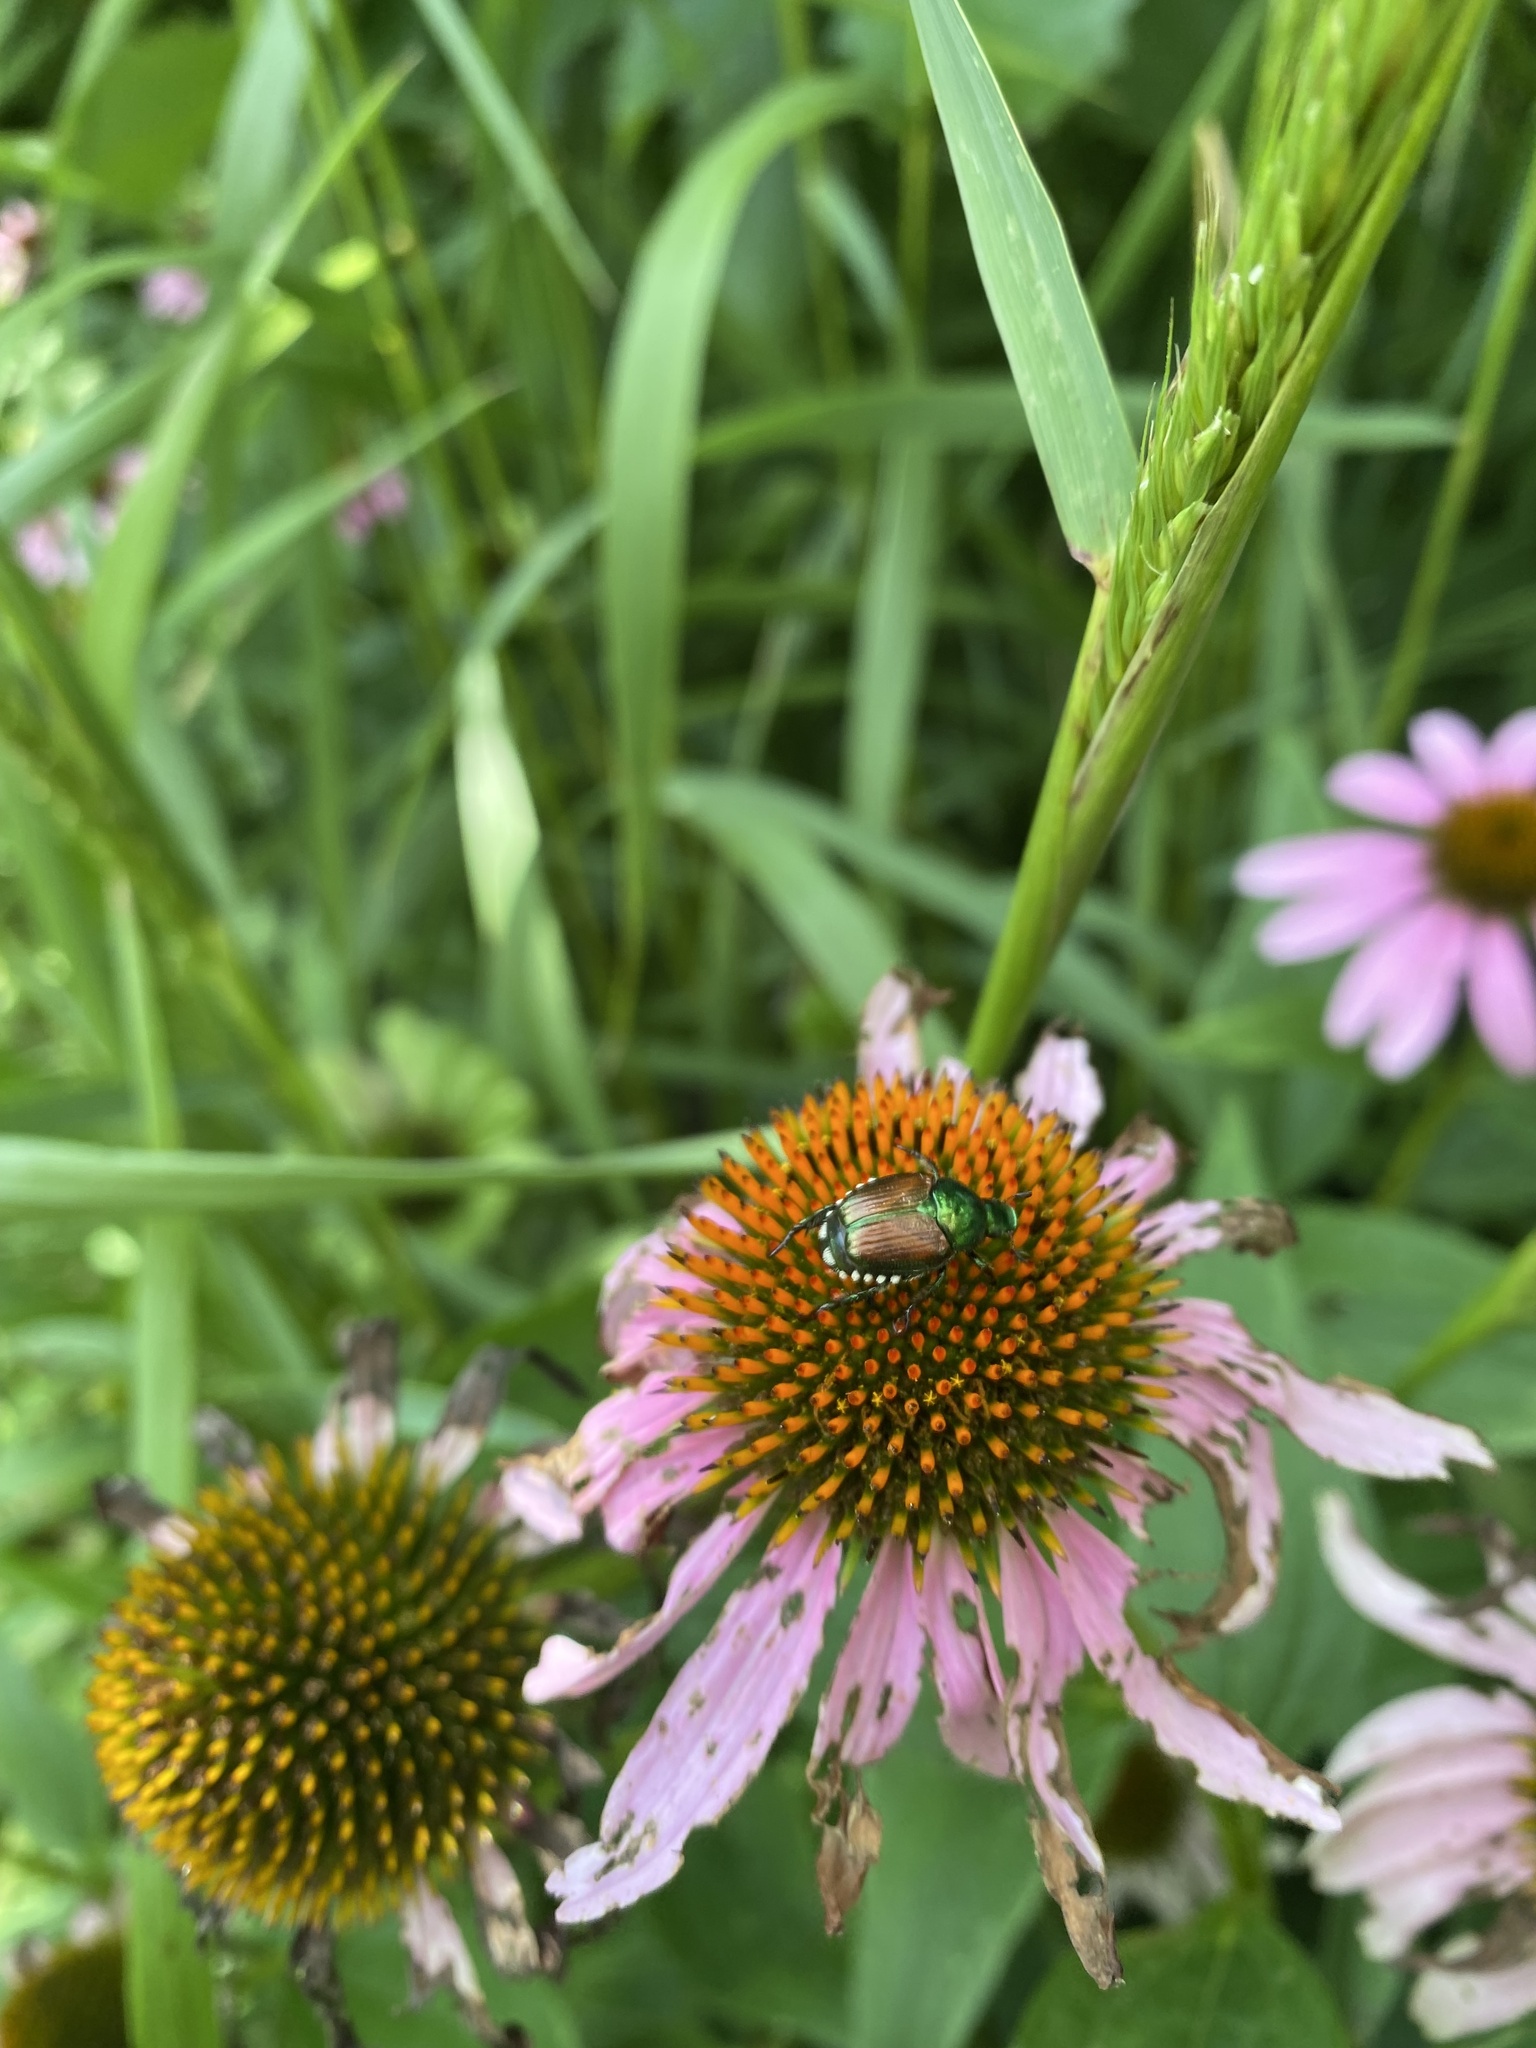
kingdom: Animalia
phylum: Arthropoda
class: Insecta
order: Coleoptera
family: Scarabaeidae
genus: Popillia
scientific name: Popillia japonica
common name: Japanese beetle
